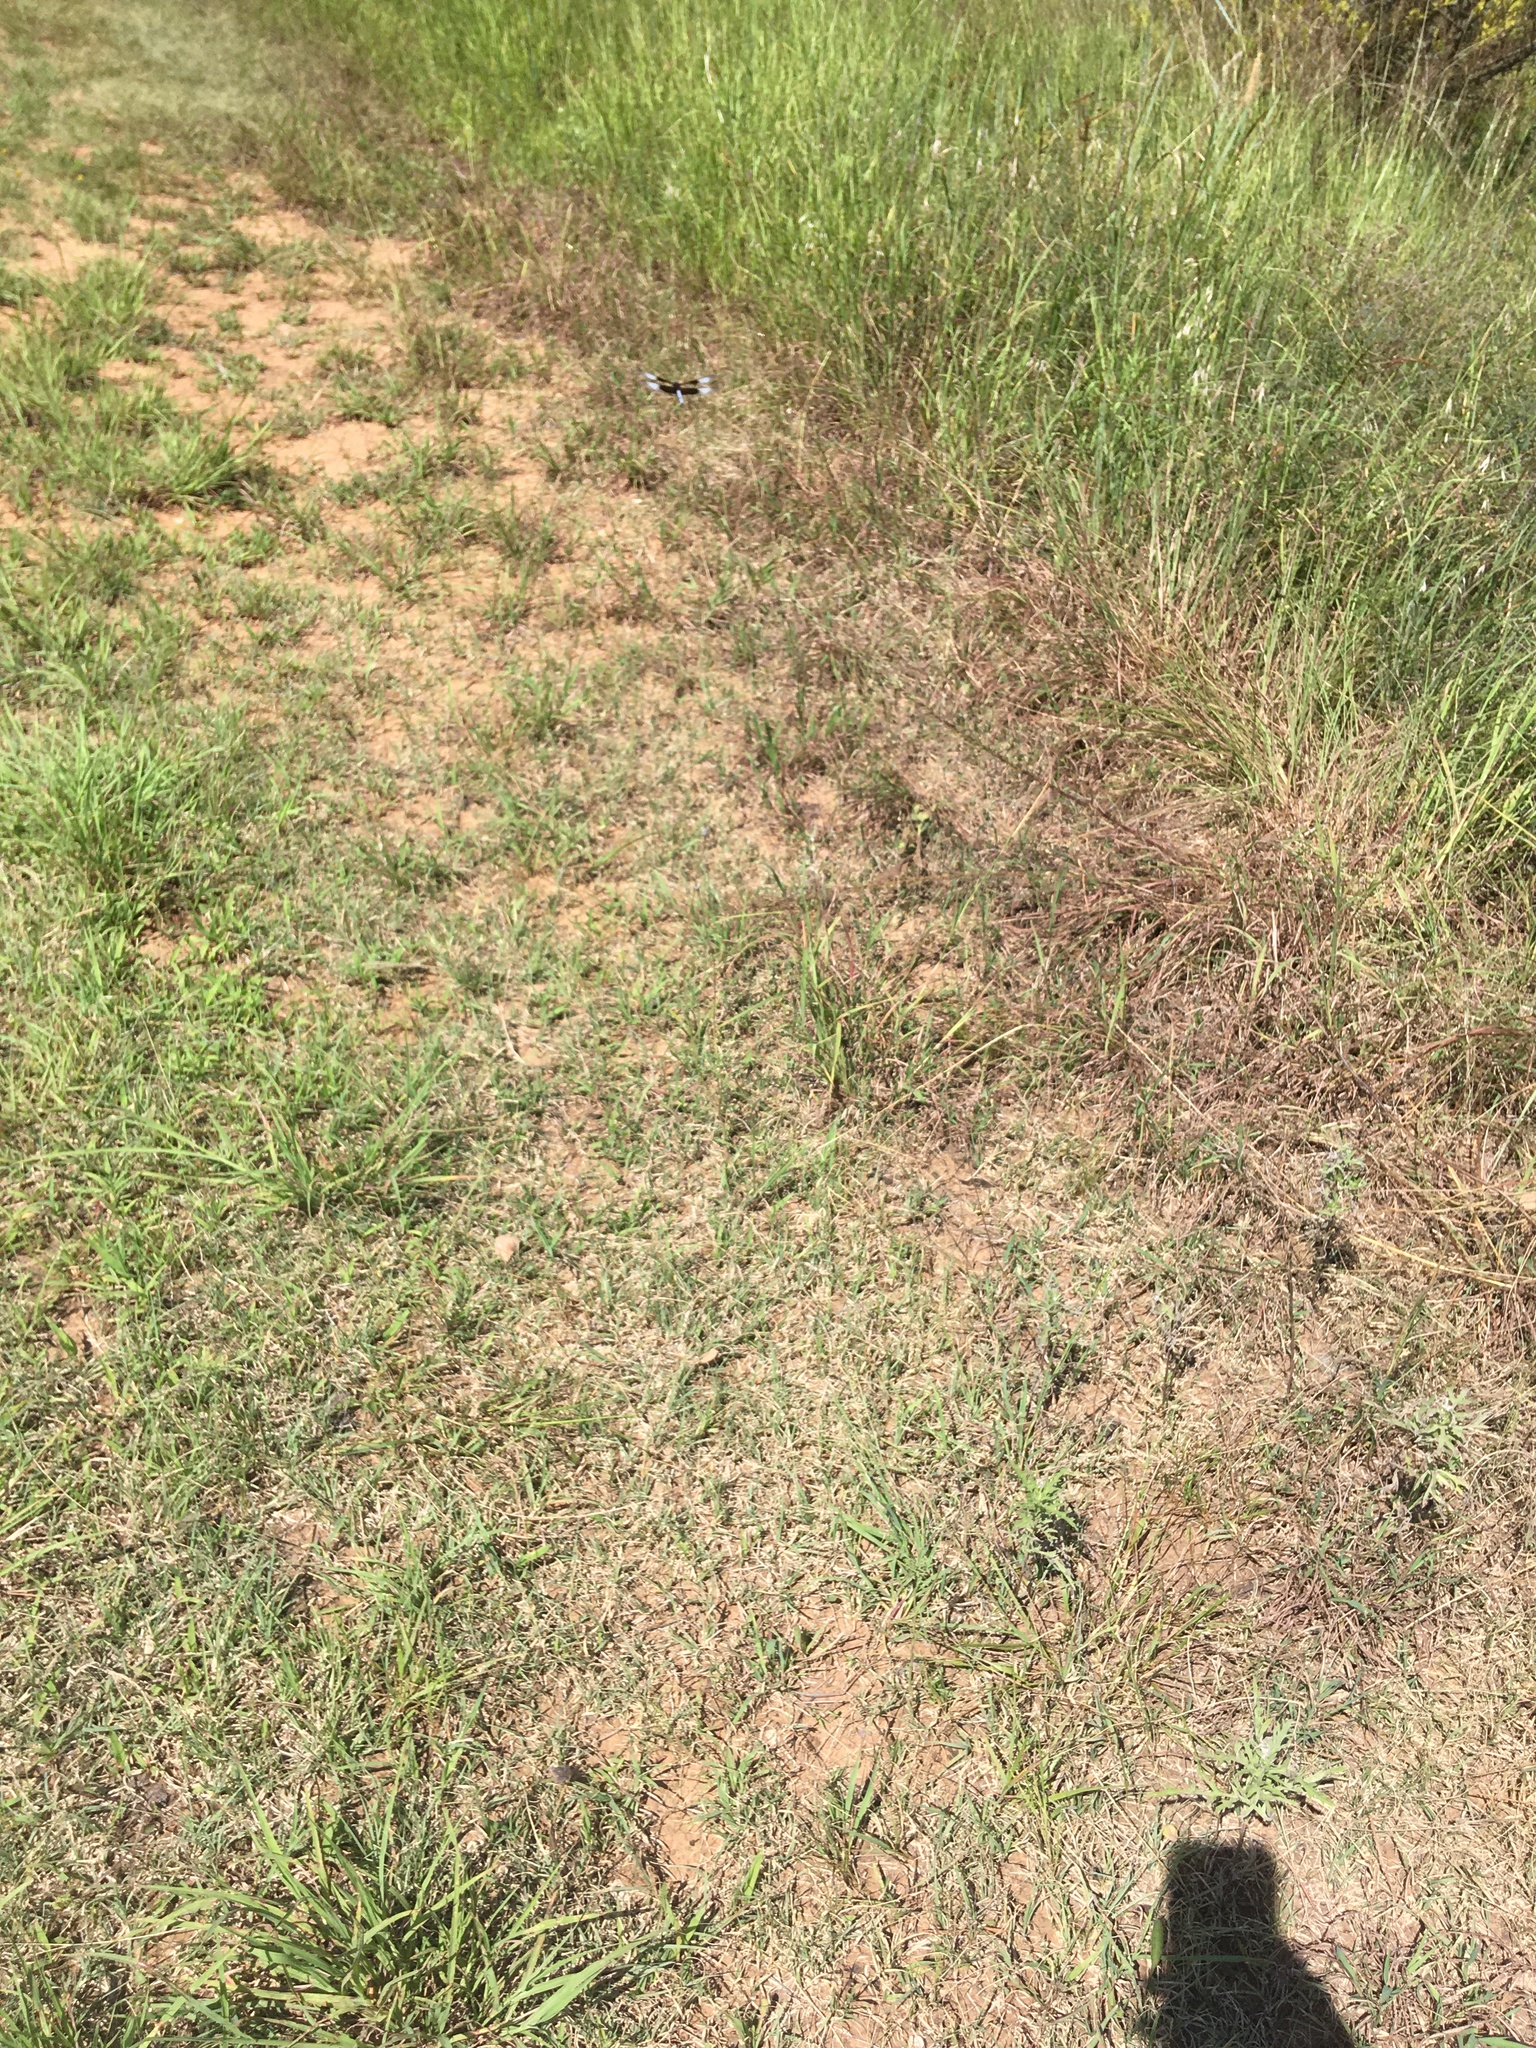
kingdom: Animalia
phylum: Arthropoda
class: Insecta
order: Odonata
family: Libellulidae
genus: Libellula
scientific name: Libellula luctuosa
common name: Widow skimmer
